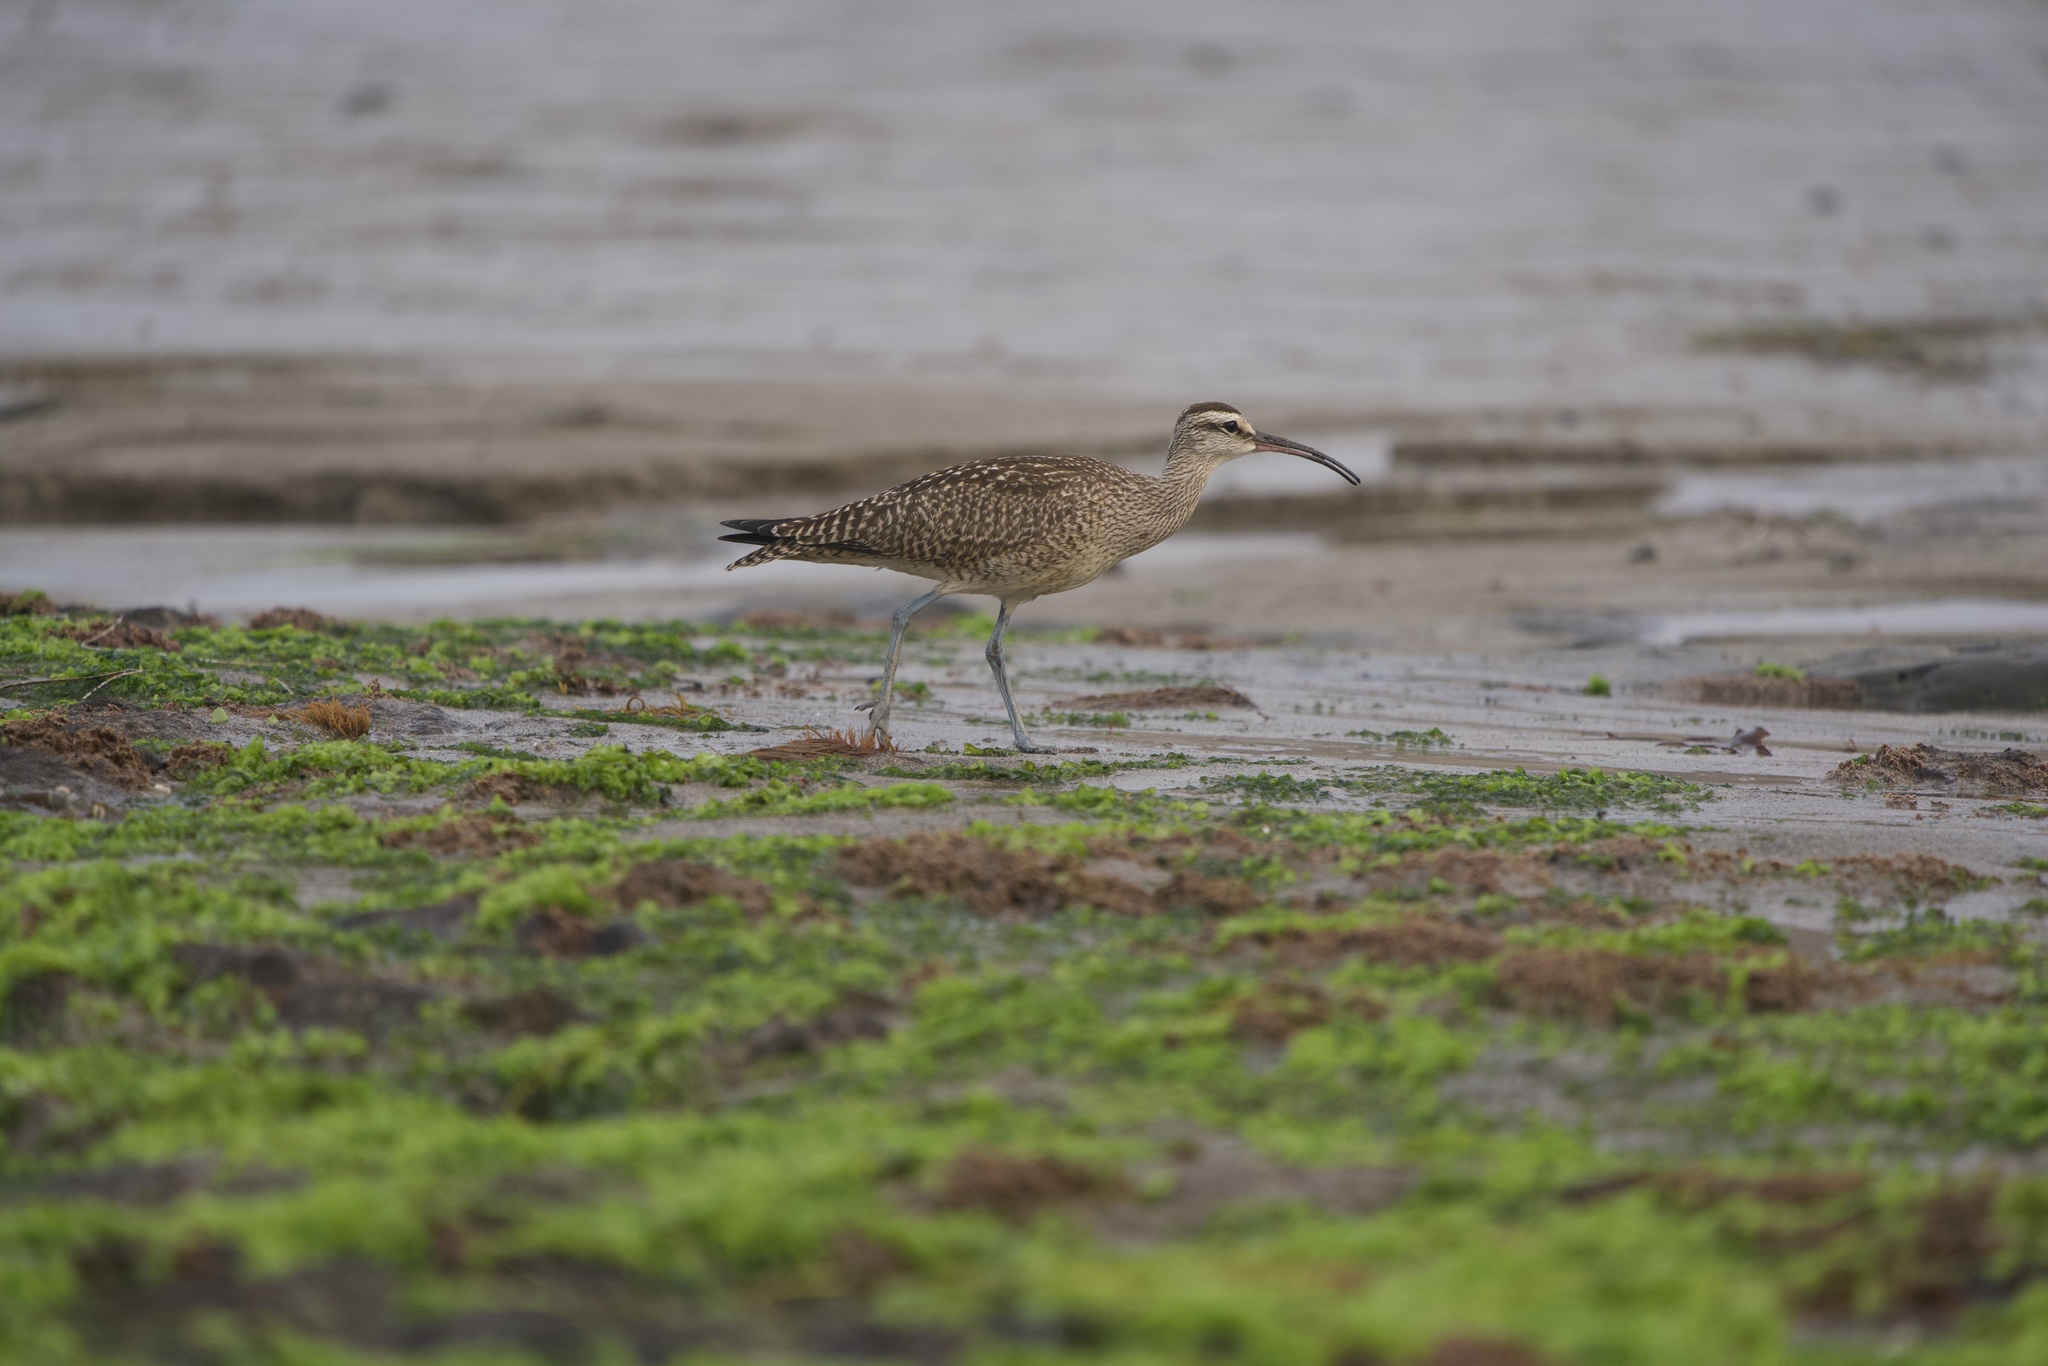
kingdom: Animalia
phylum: Chordata
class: Aves
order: Charadriiformes
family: Scolopacidae
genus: Numenius
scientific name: Numenius phaeopus
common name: Whimbrel
